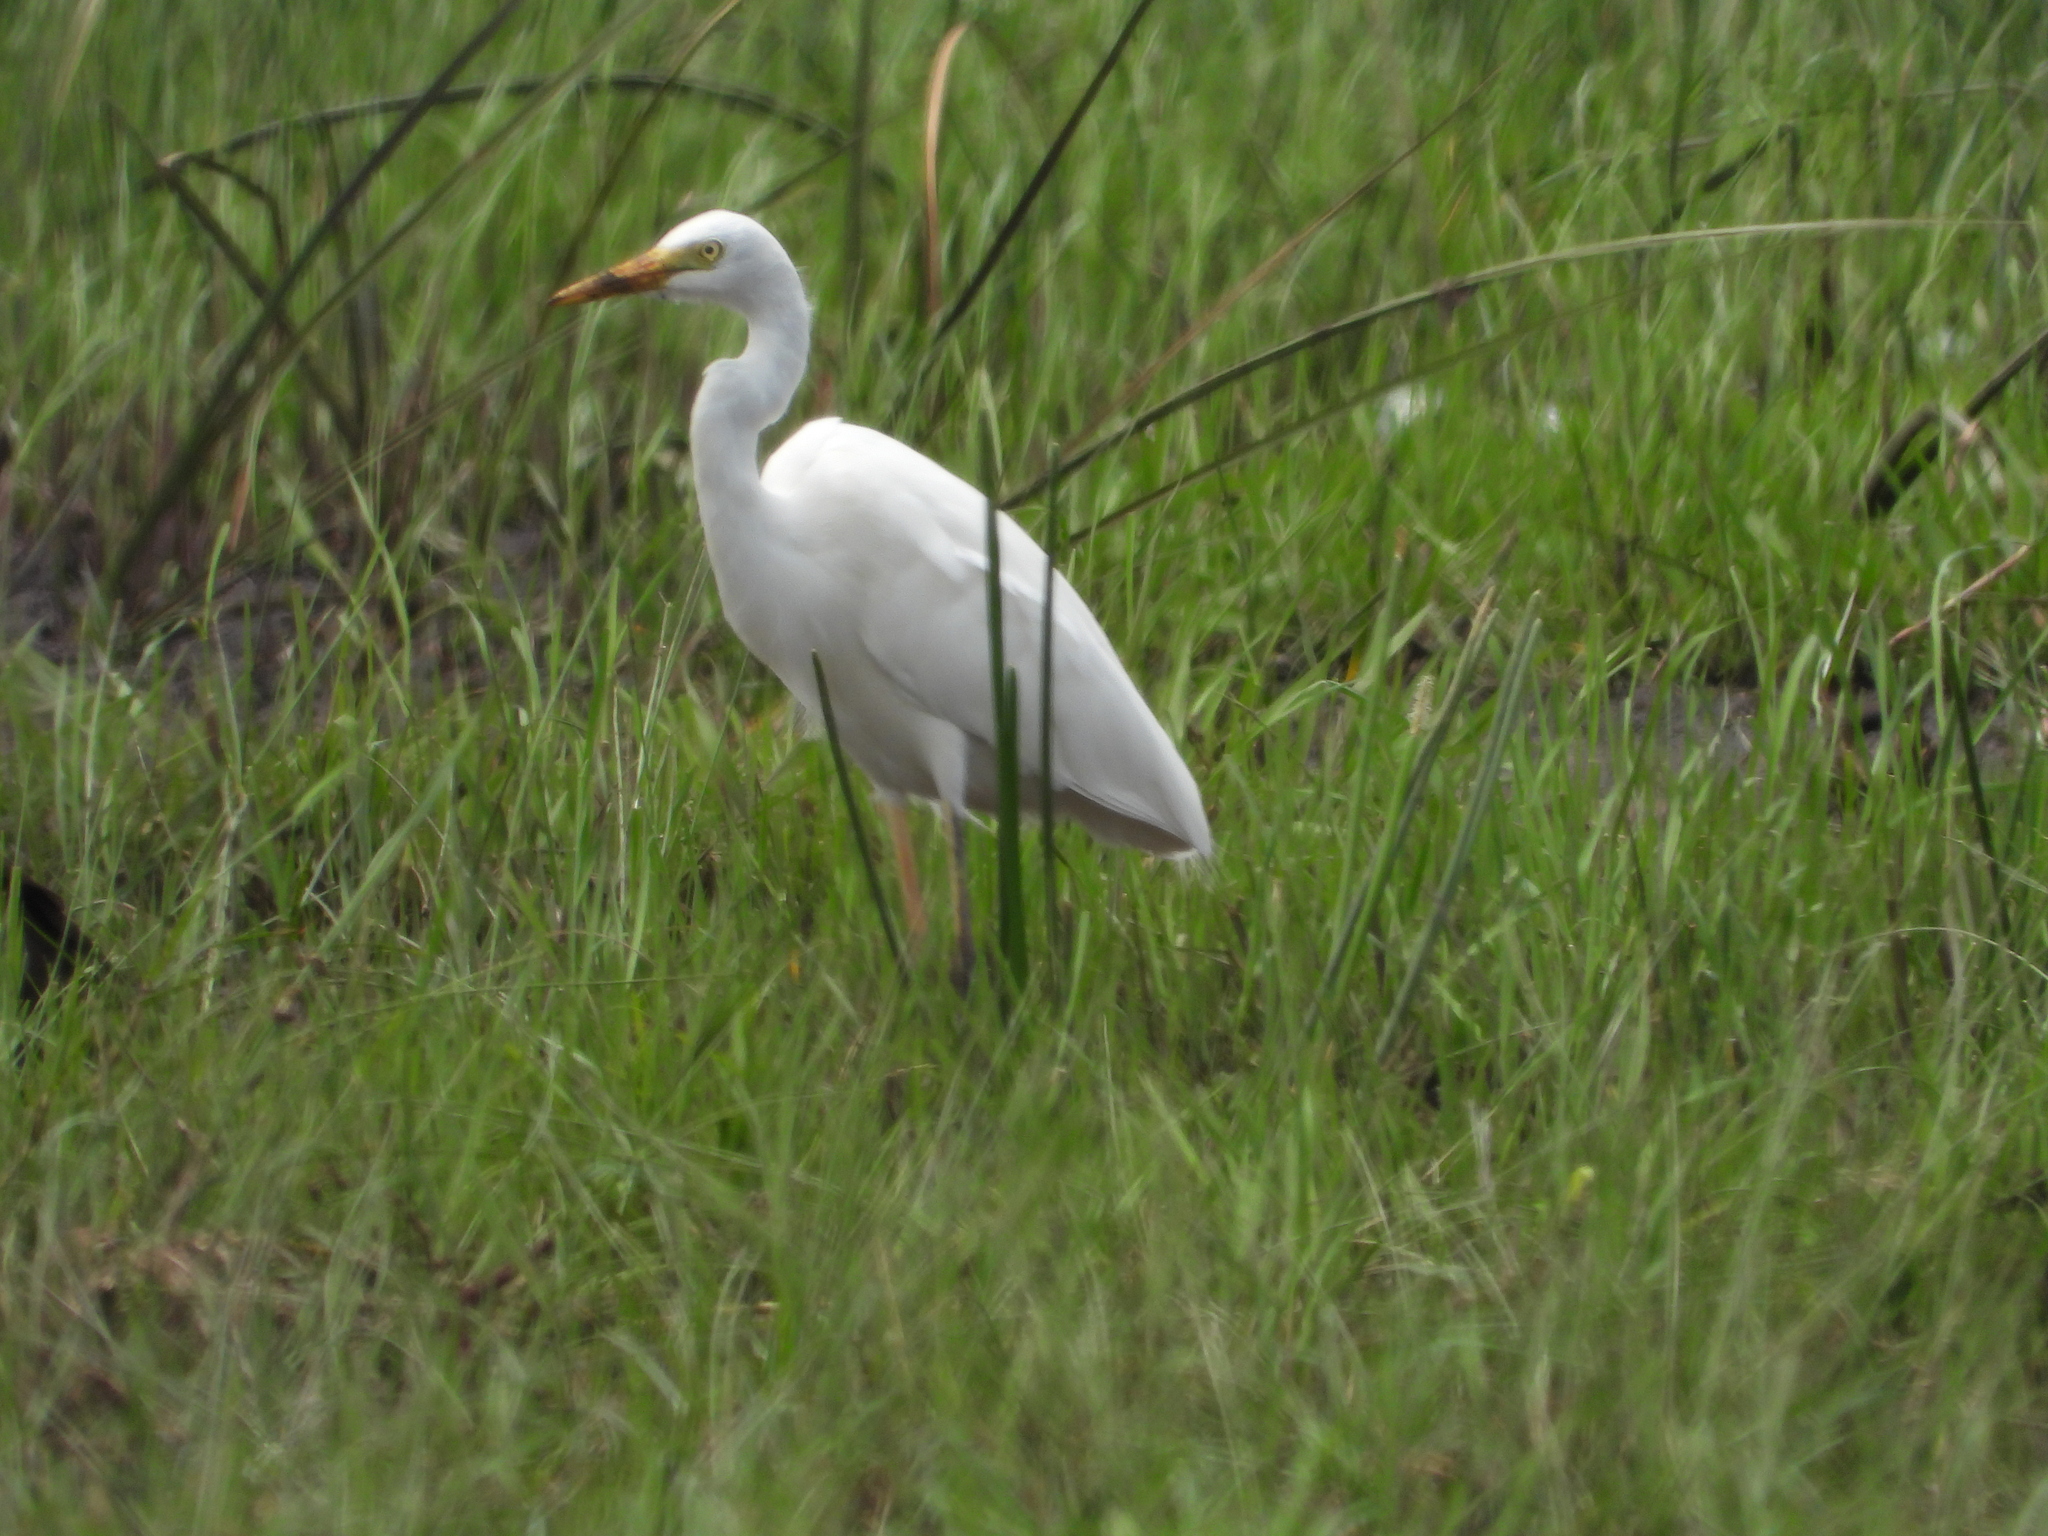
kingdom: Animalia
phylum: Chordata
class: Aves
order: Pelecaniformes
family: Ardeidae
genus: Bubulcus
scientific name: Bubulcus ibis
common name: Cattle egret
